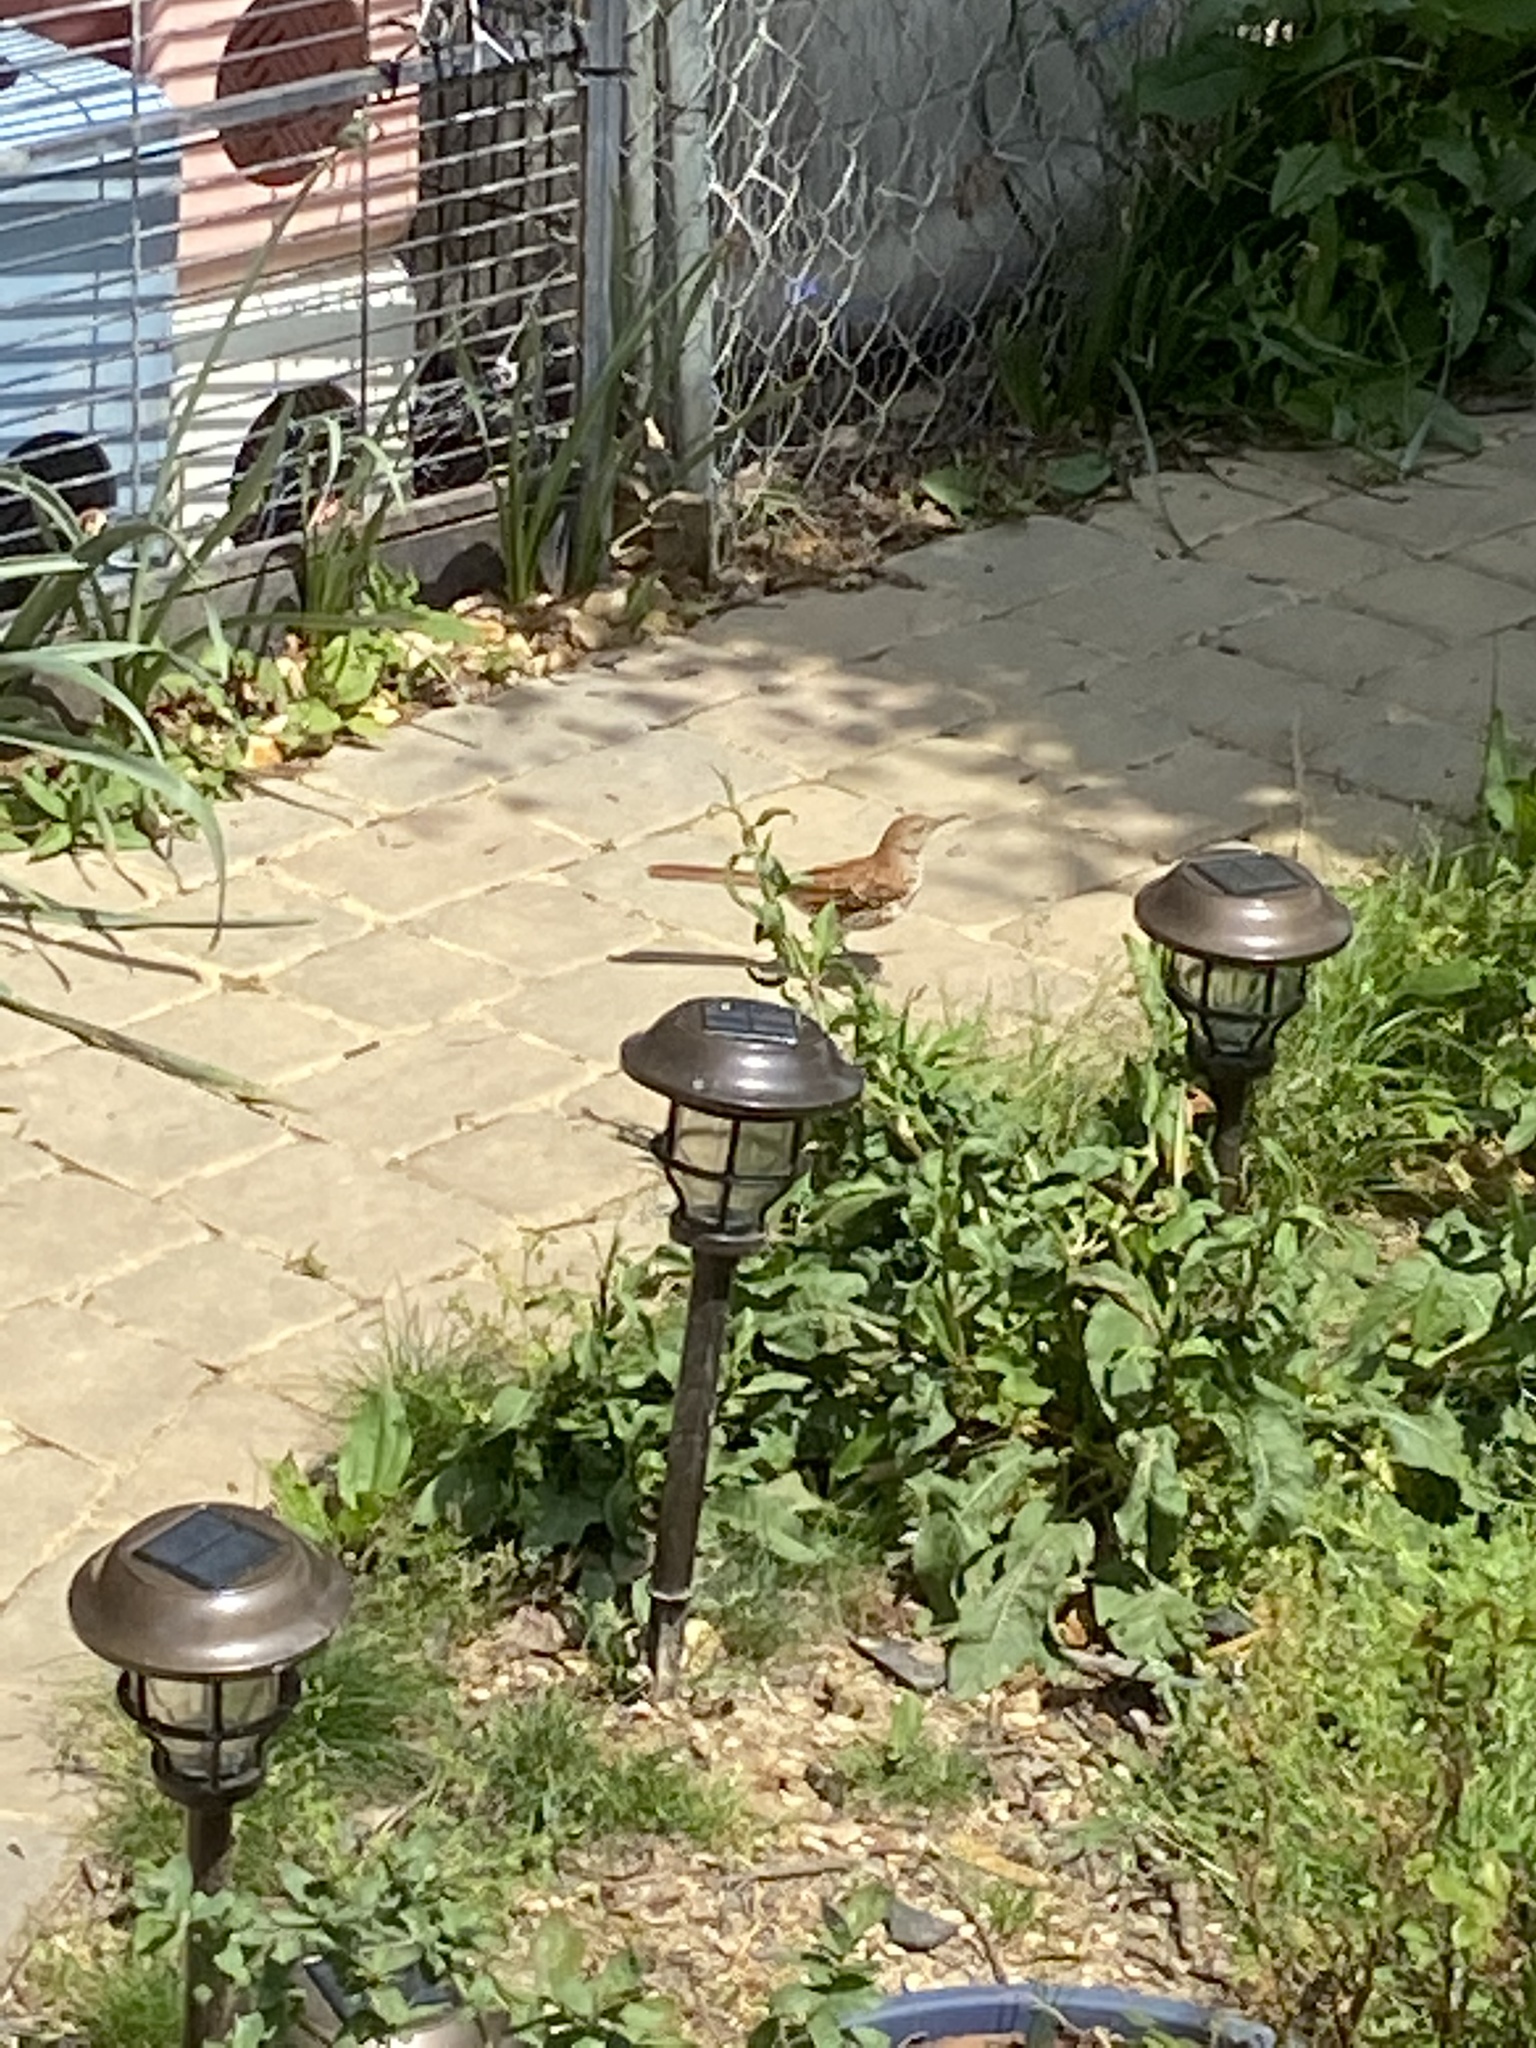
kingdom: Animalia
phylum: Chordata
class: Aves
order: Passeriformes
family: Mimidae
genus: Toxostoma
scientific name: Toxostoma rufum
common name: Brown thrasher
